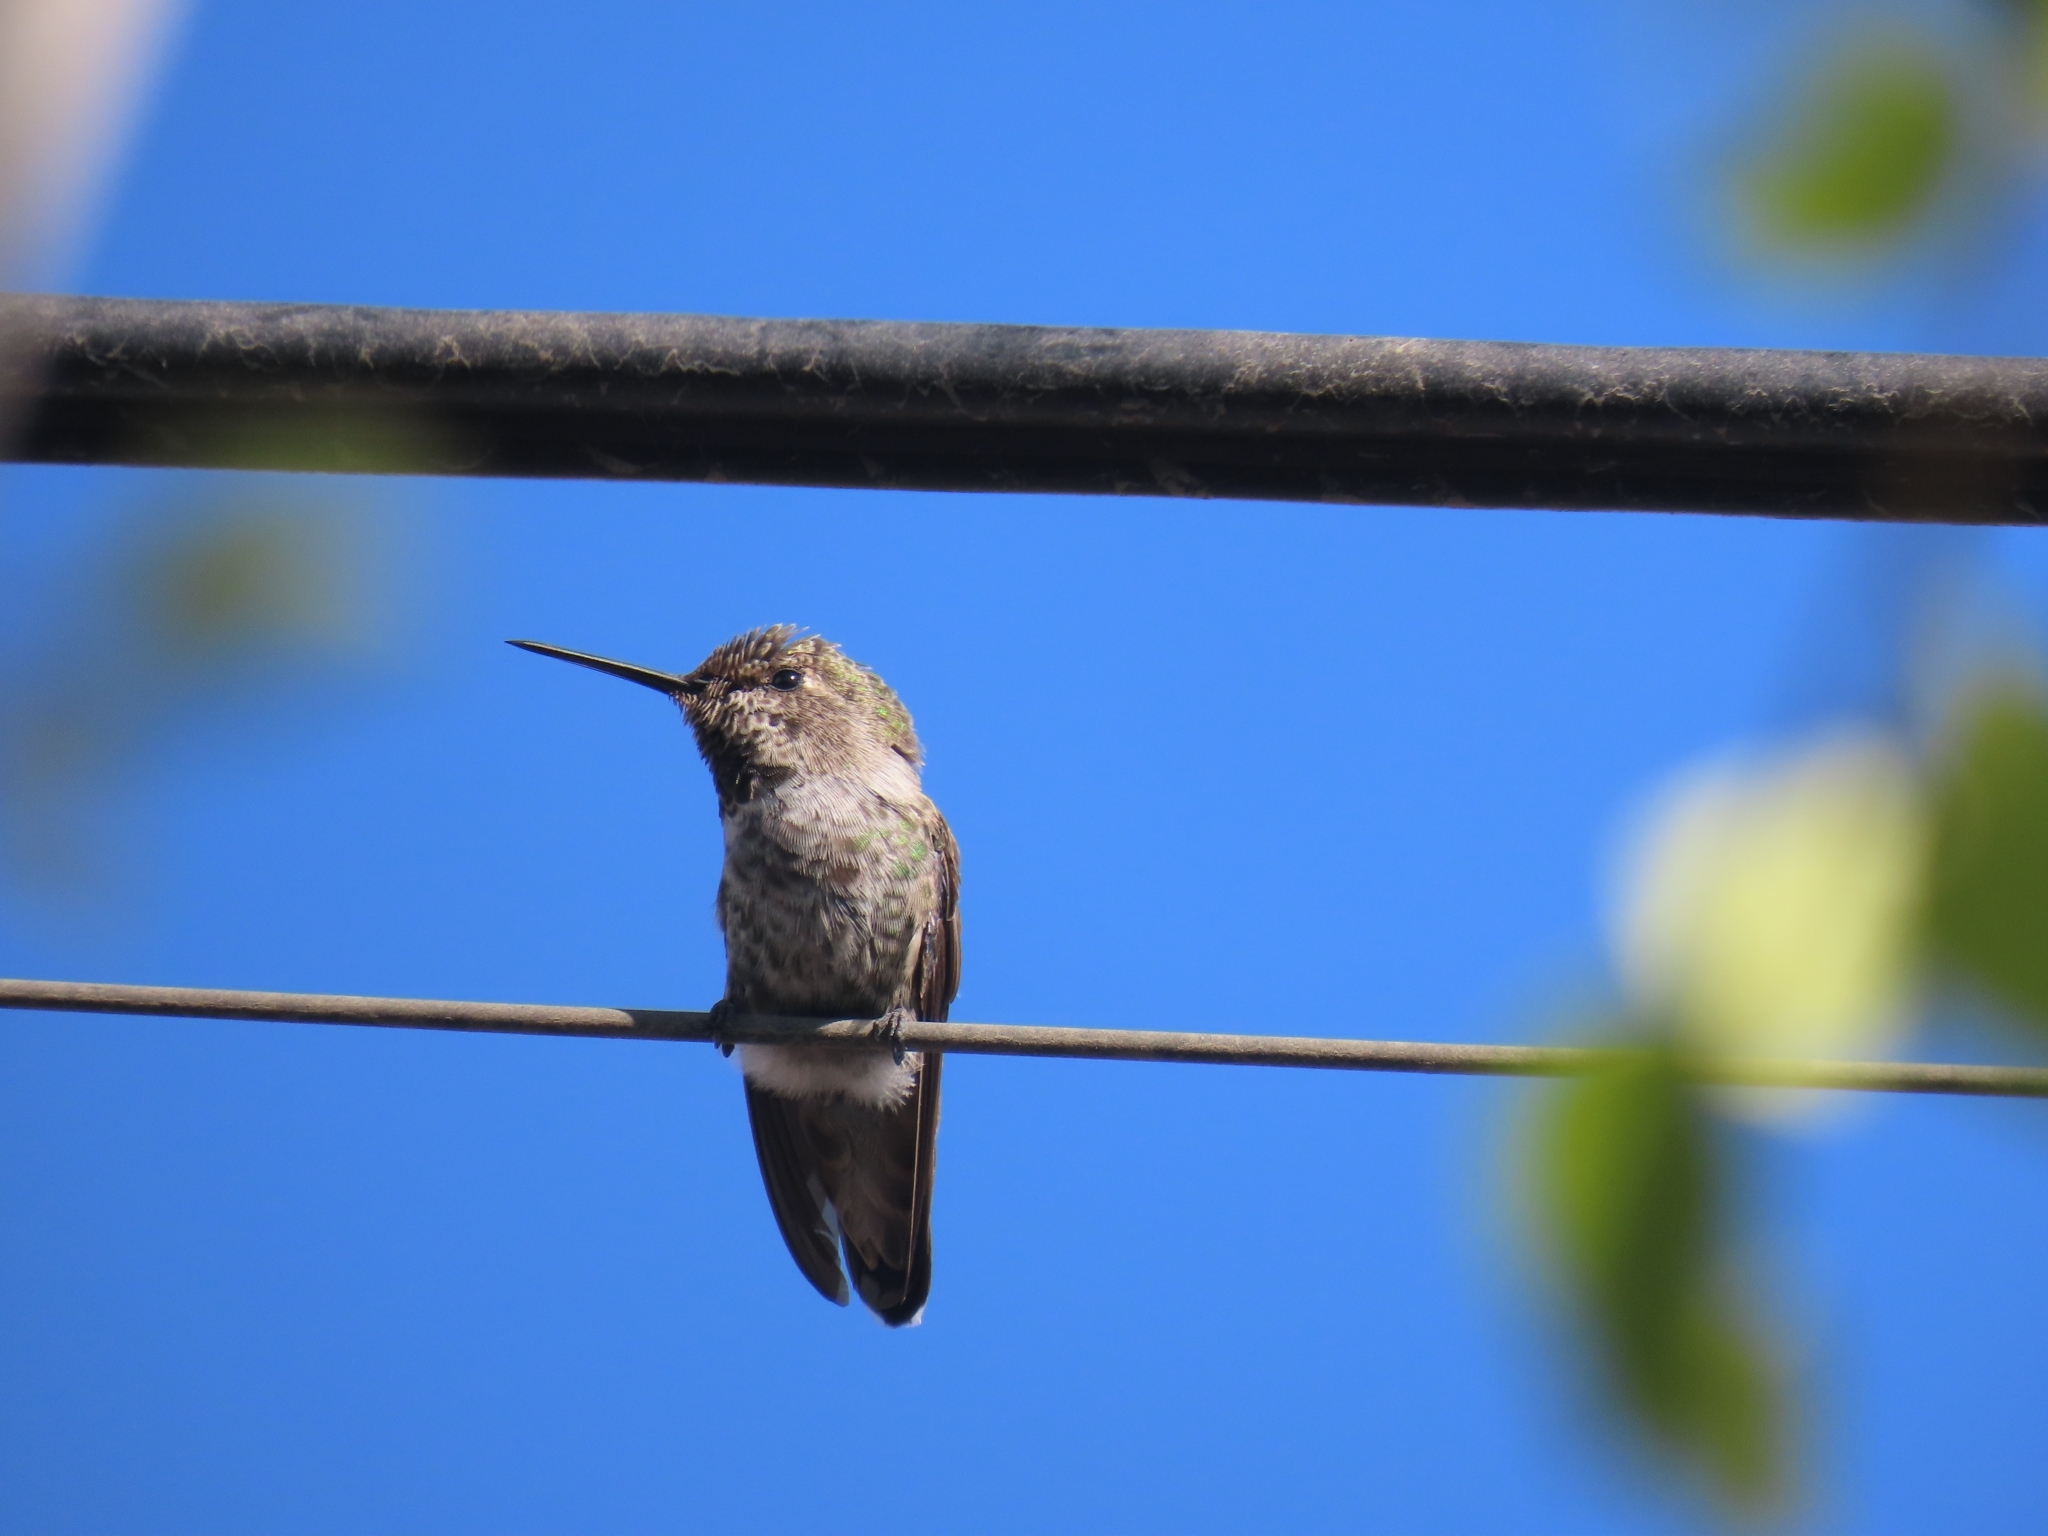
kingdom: Animalia
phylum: Chordata
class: Aves
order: Apodiformes
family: Trochilidae
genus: Calypte
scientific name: Calypte anna
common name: Anna's hummingbird
